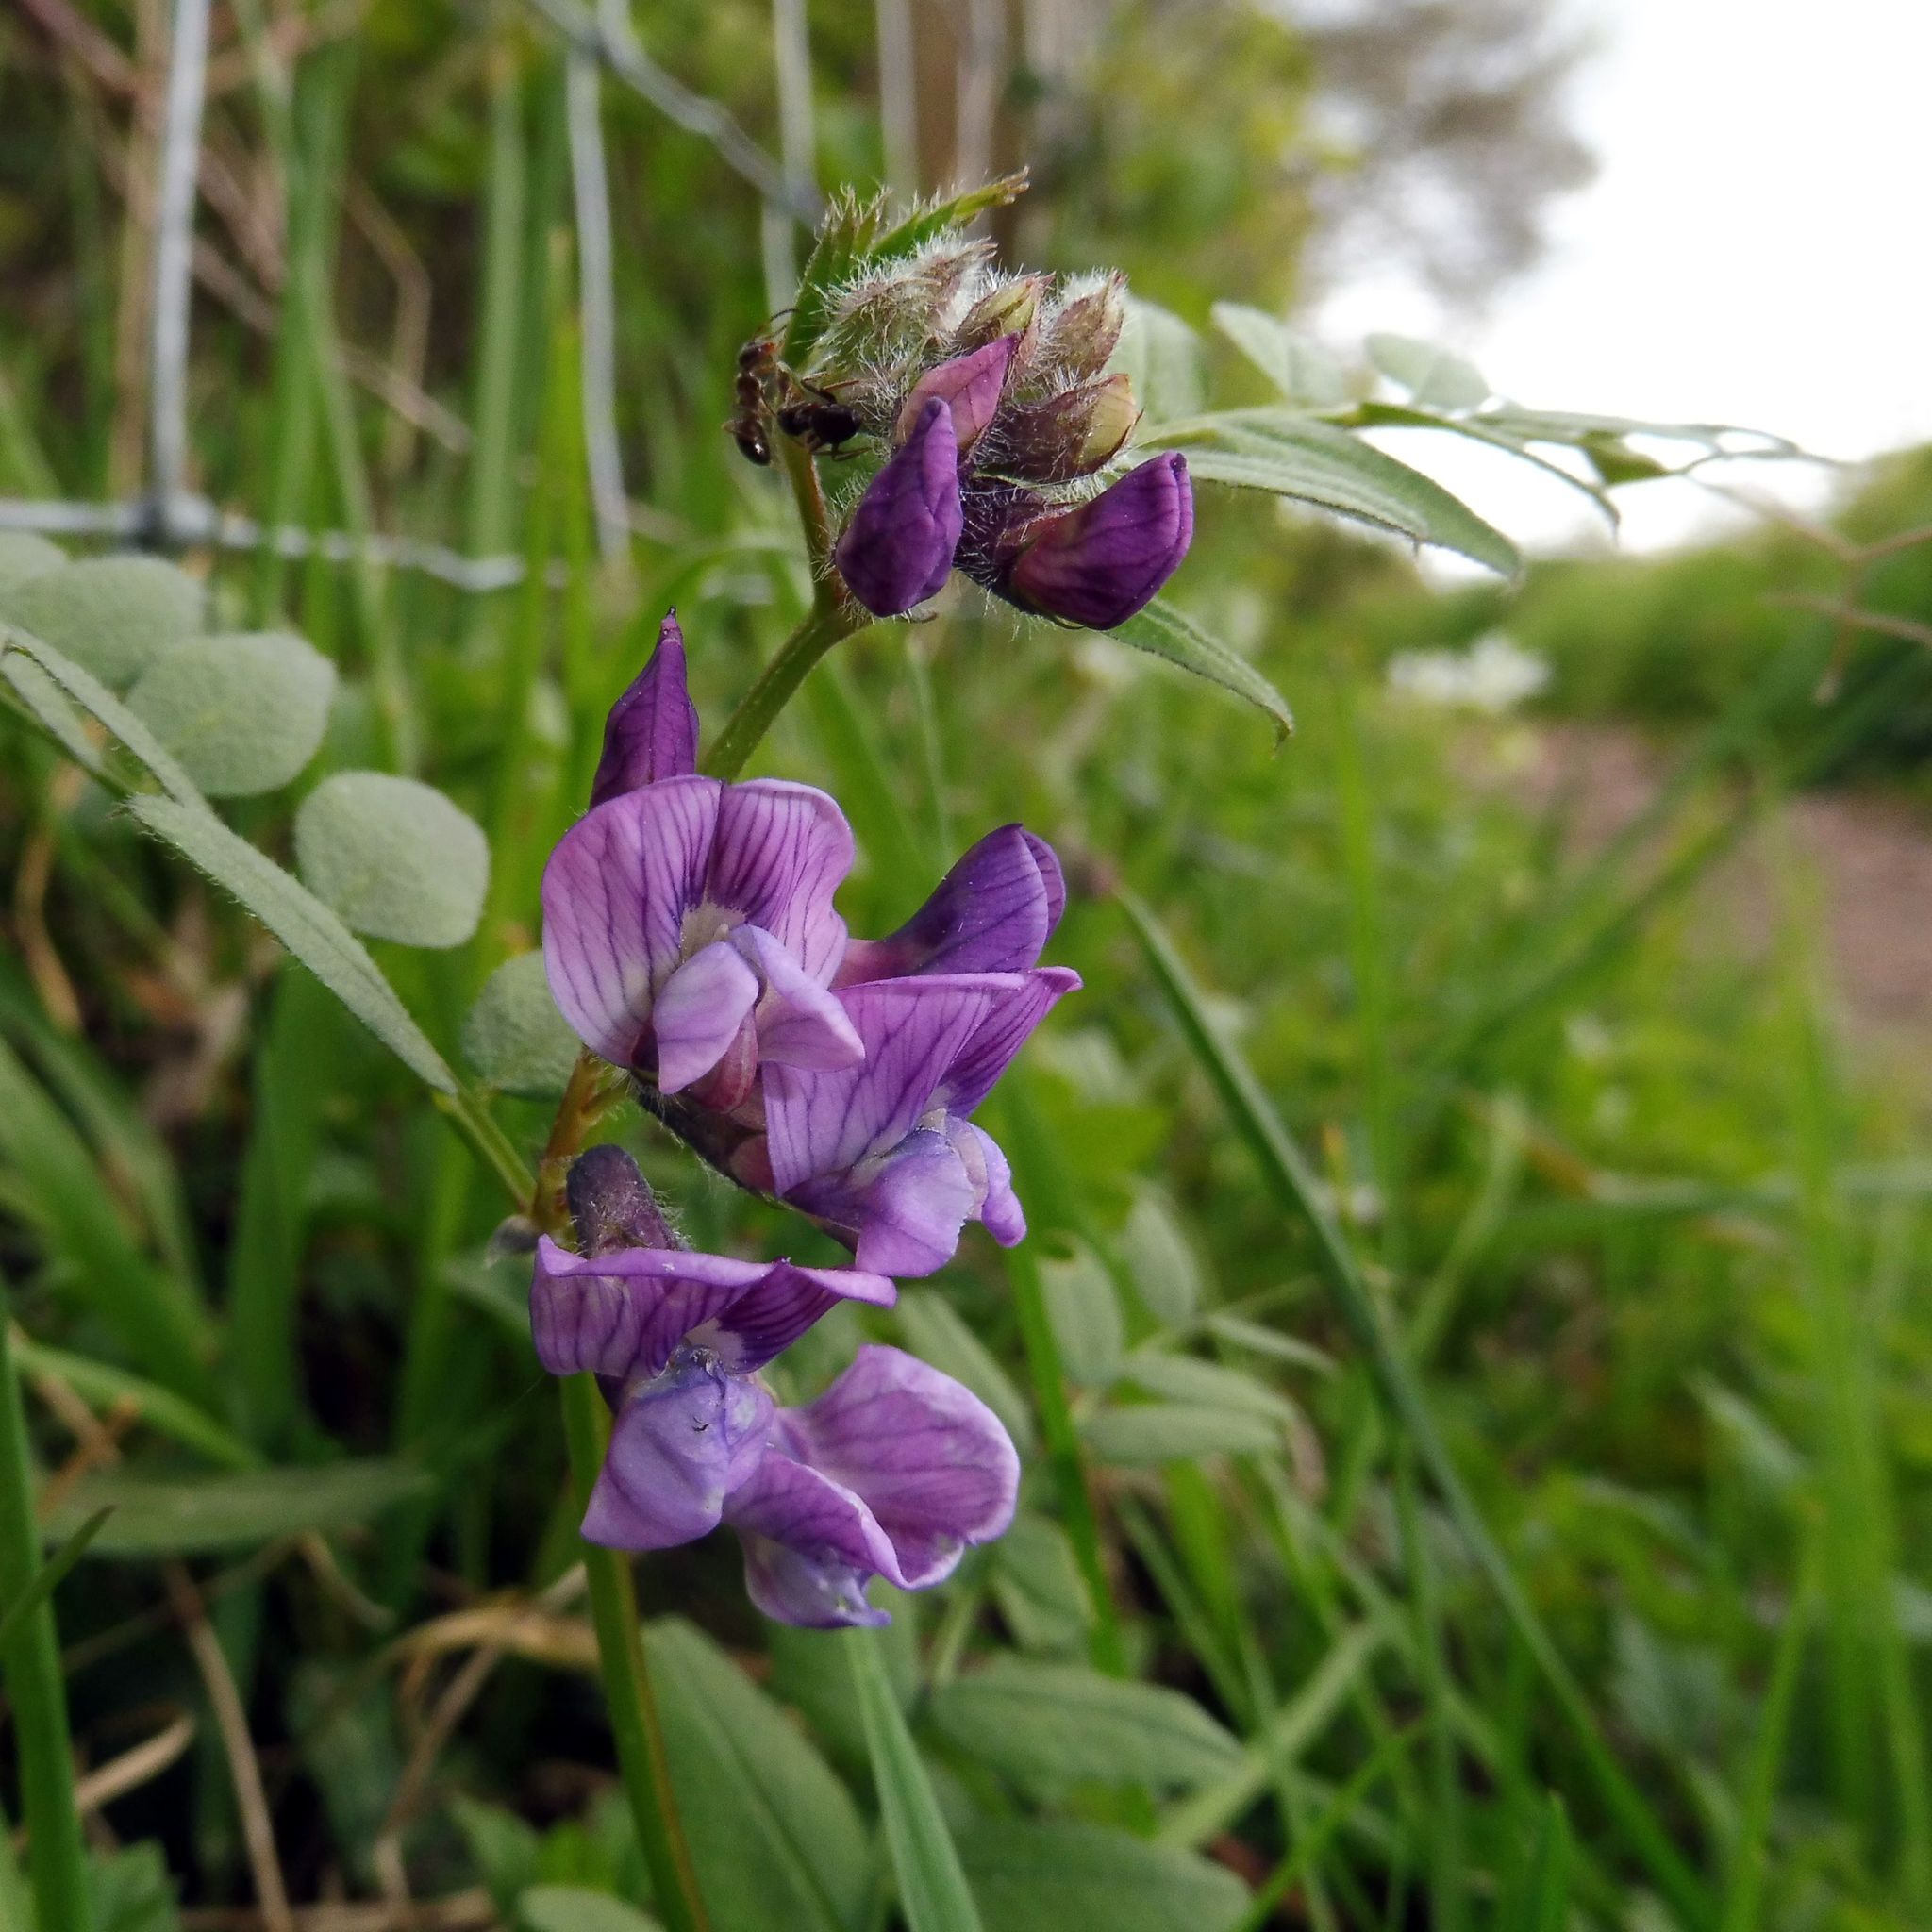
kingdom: Plantae
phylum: Tracheophyta
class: Magnoliopsida
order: Fabales
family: Fabaceae
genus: Vicia
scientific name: Vicia sepium
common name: Bush vetch
